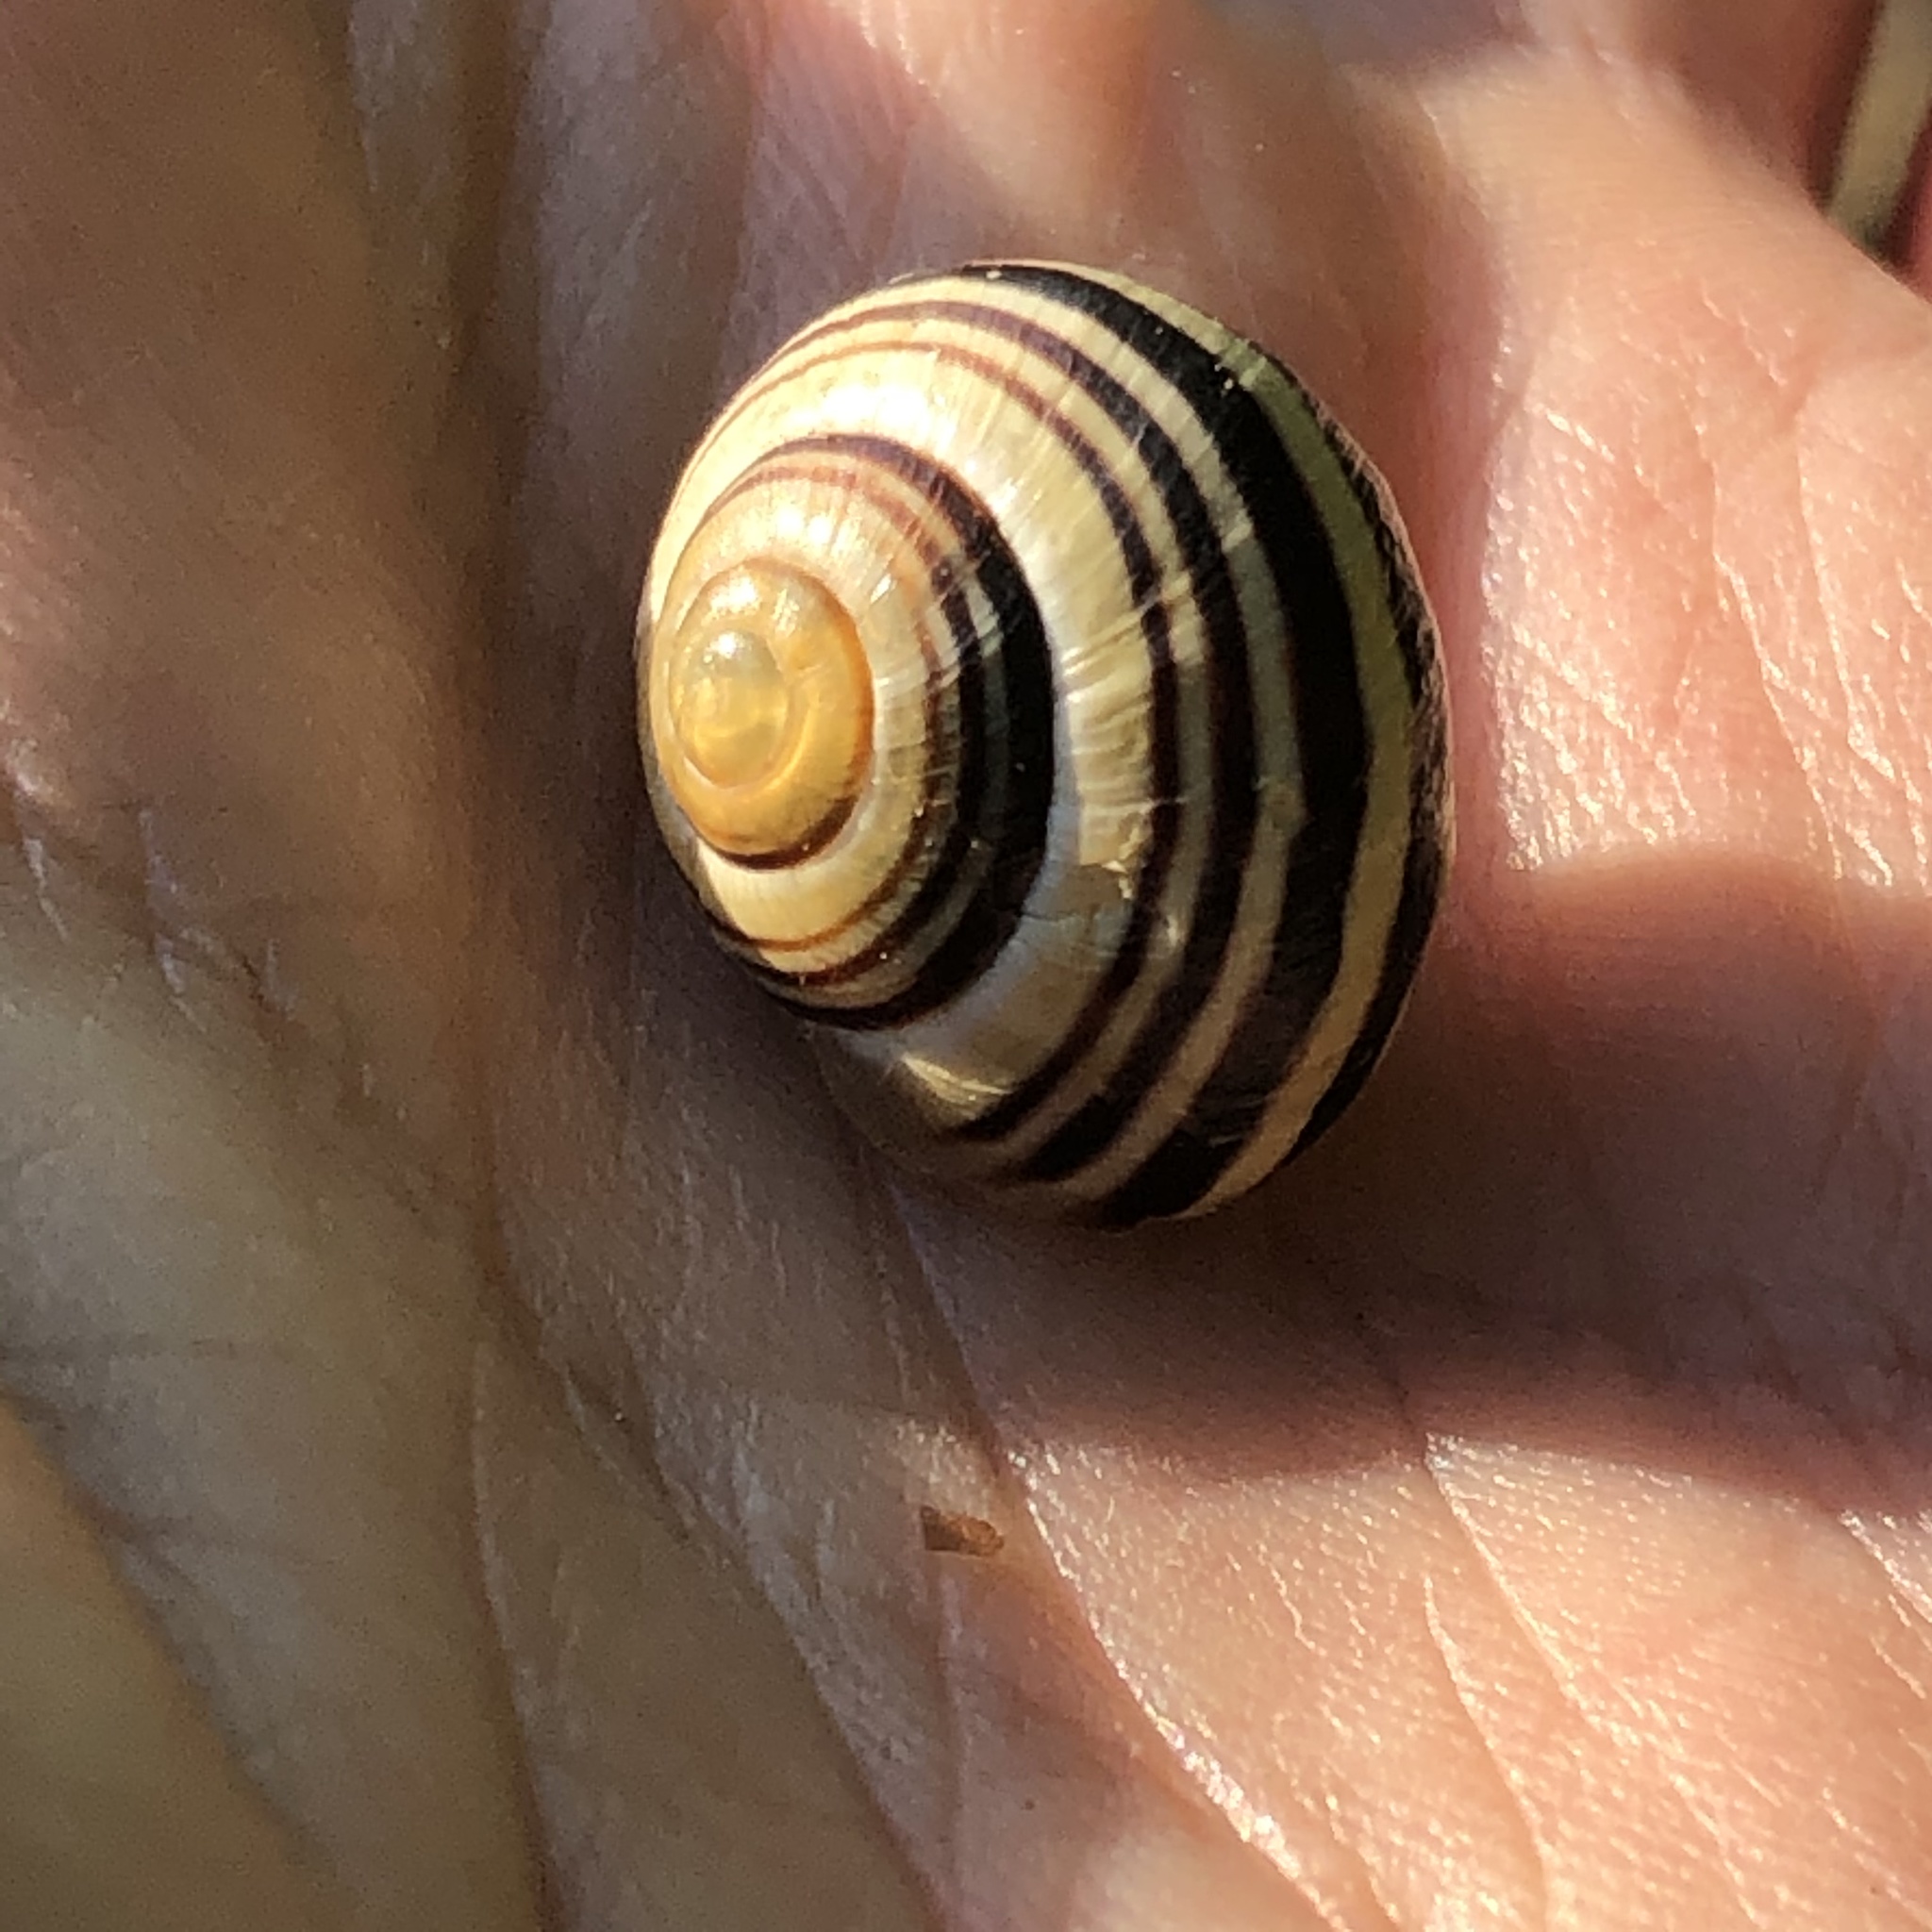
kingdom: Animalia
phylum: Mollusca
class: Gastropoda
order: Stylommatophora
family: Helicidae
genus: Cepaea
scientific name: Cepaea
